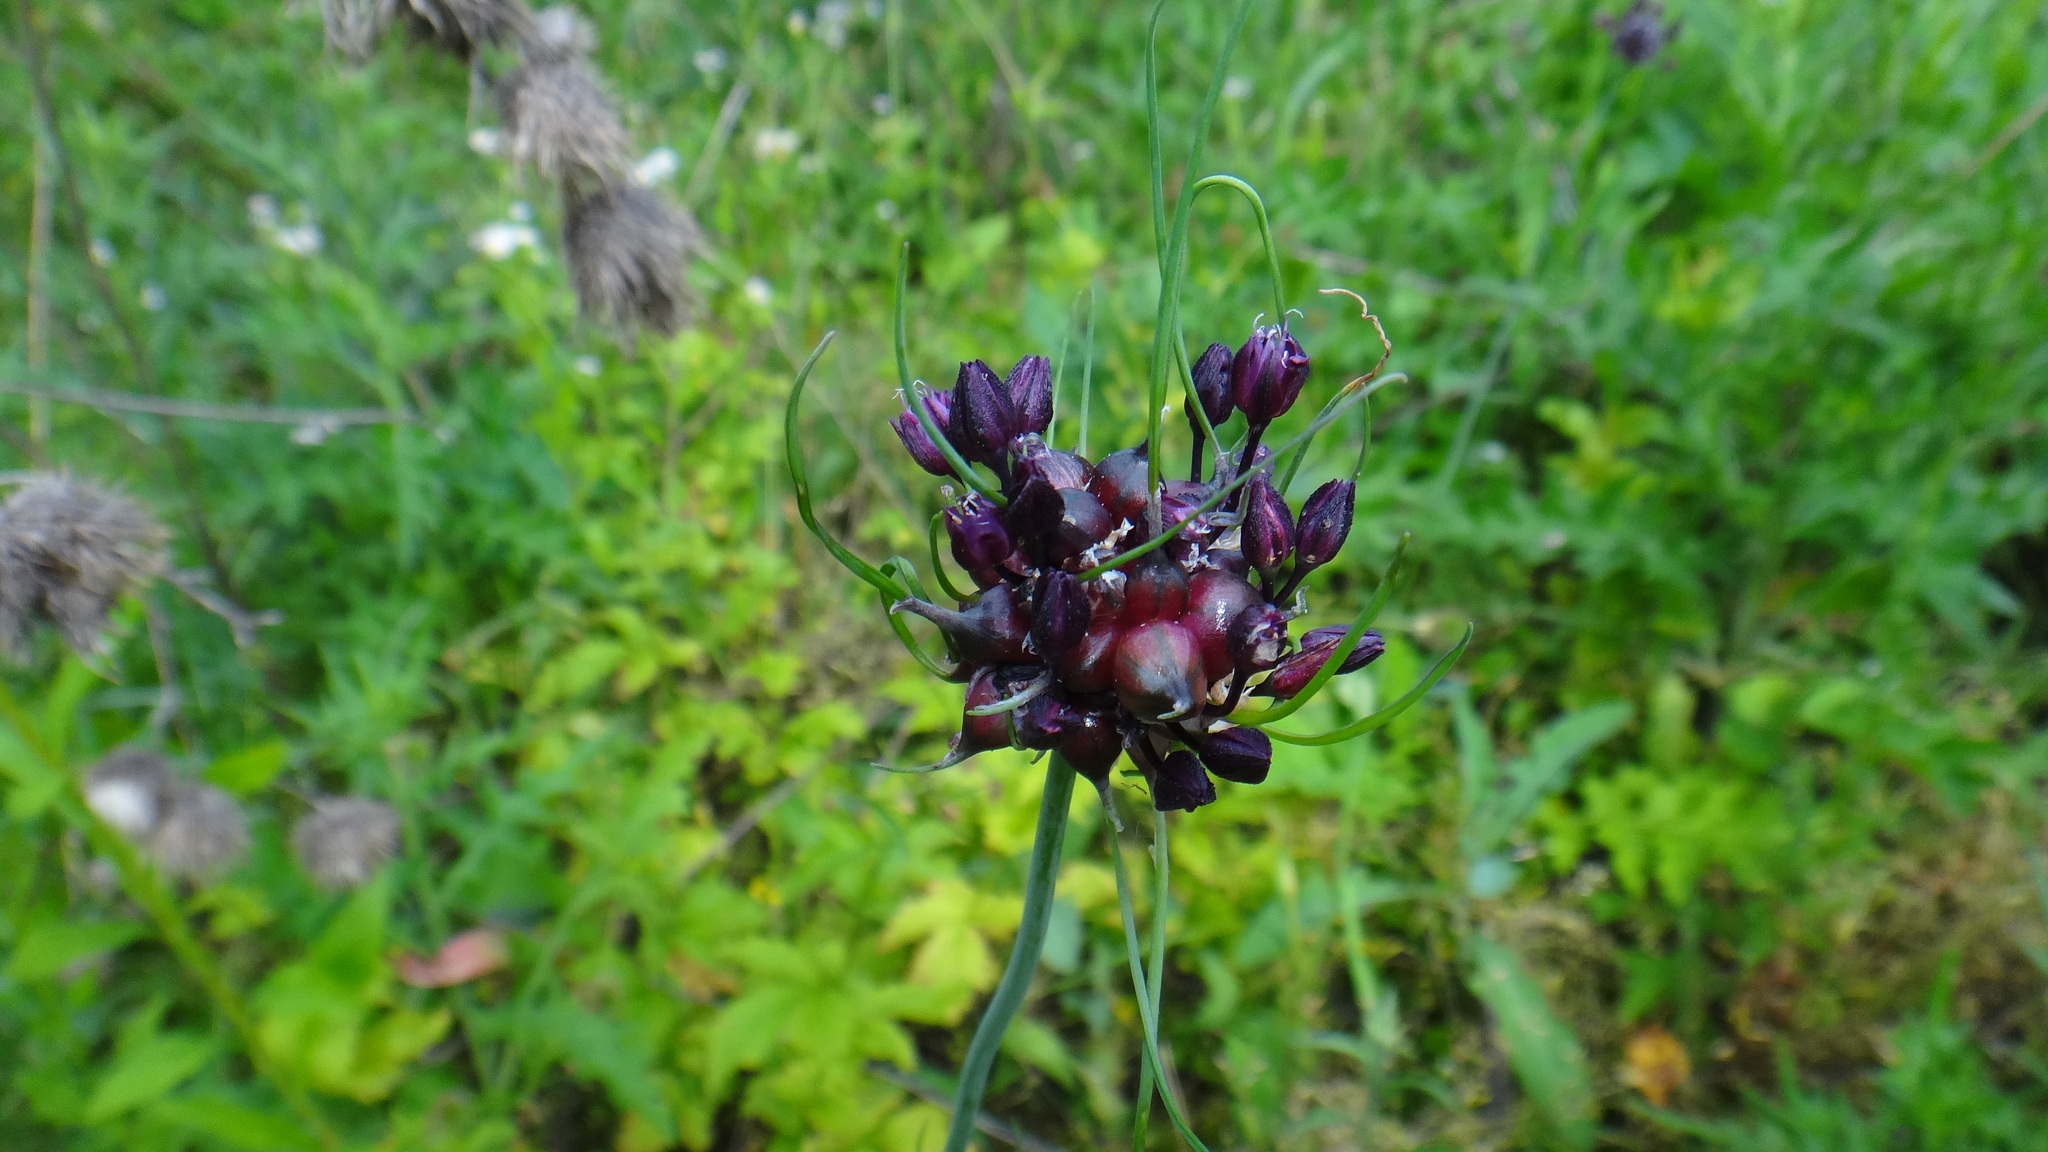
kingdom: Plantae
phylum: Tracheophyta
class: Liliopsida
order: Asparagales
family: Amaryllidaceae
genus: Allium
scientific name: Allium scorodoprasum
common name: Sand leek
